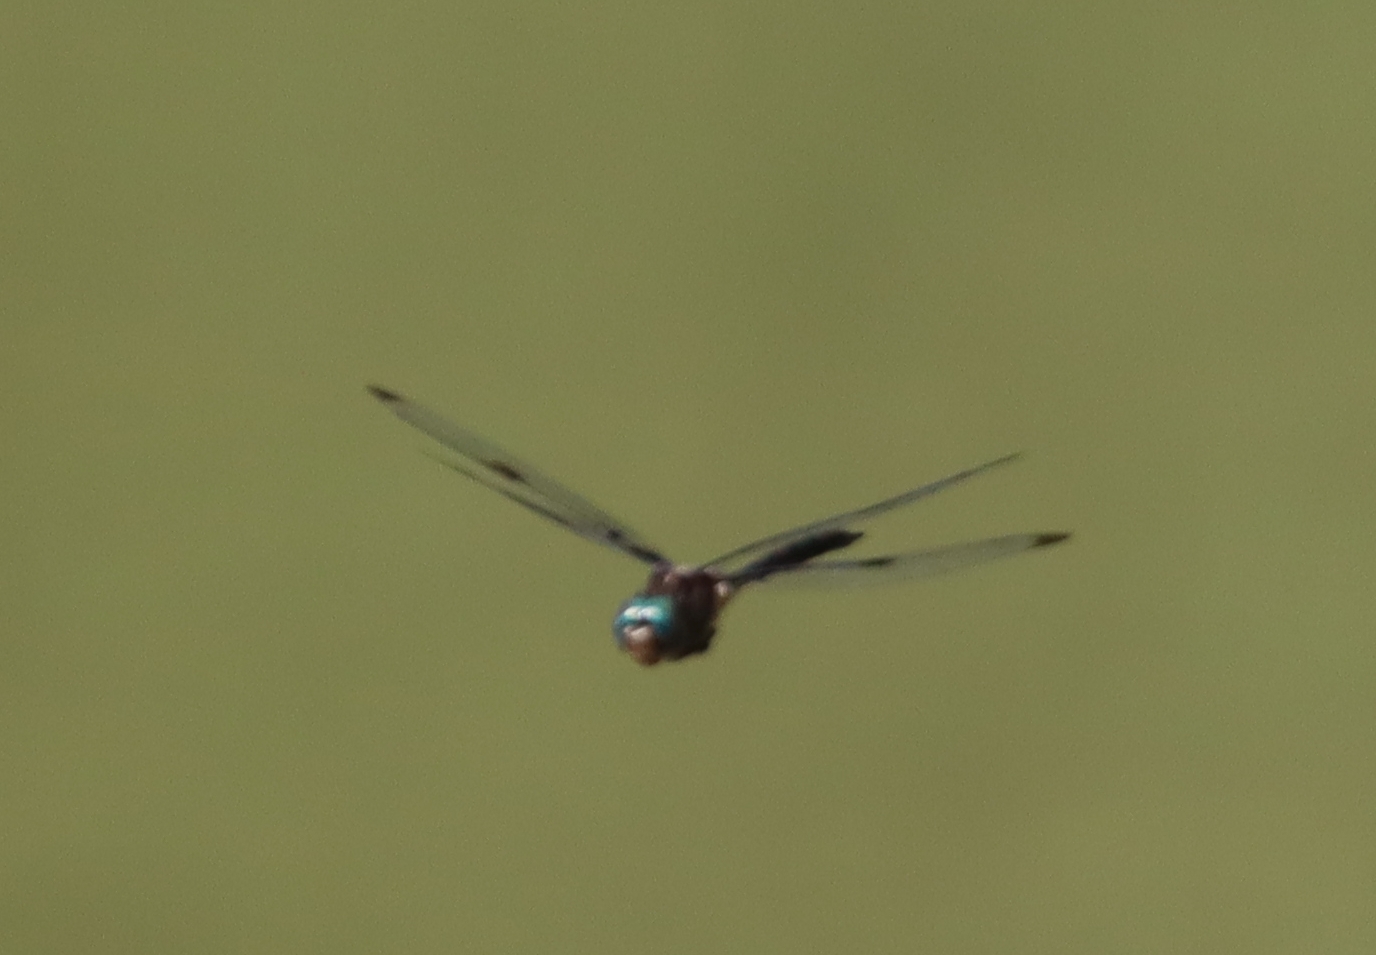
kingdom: Animalia
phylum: Arthropoda
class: Insecta
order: Odonata
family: Corduliidae
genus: Epitheca
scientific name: Epitheca princeps
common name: Prince baskettail
